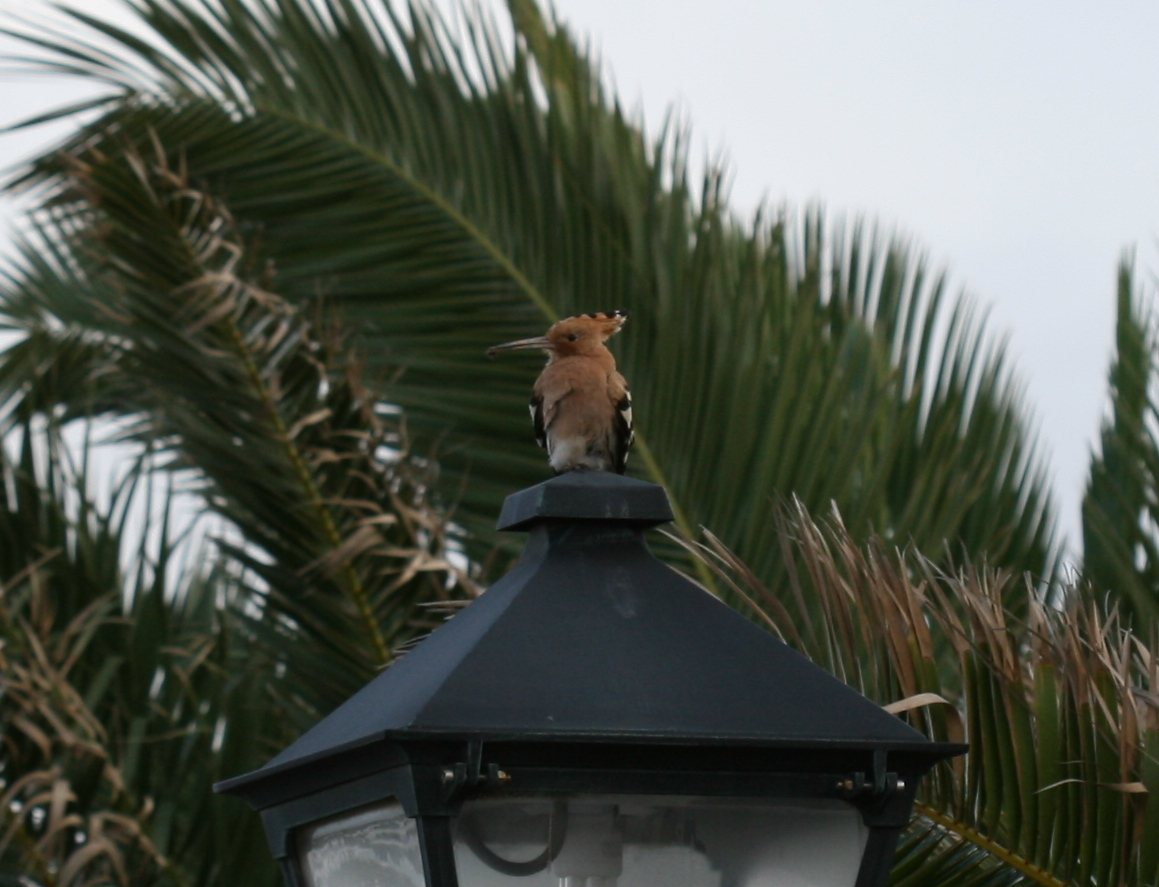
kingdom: Animalia
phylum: Chordata
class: Aves
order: Bucerotiformes
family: Upupidae
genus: Upupa
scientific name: Upupa epops
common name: Eurasian hoopoe
